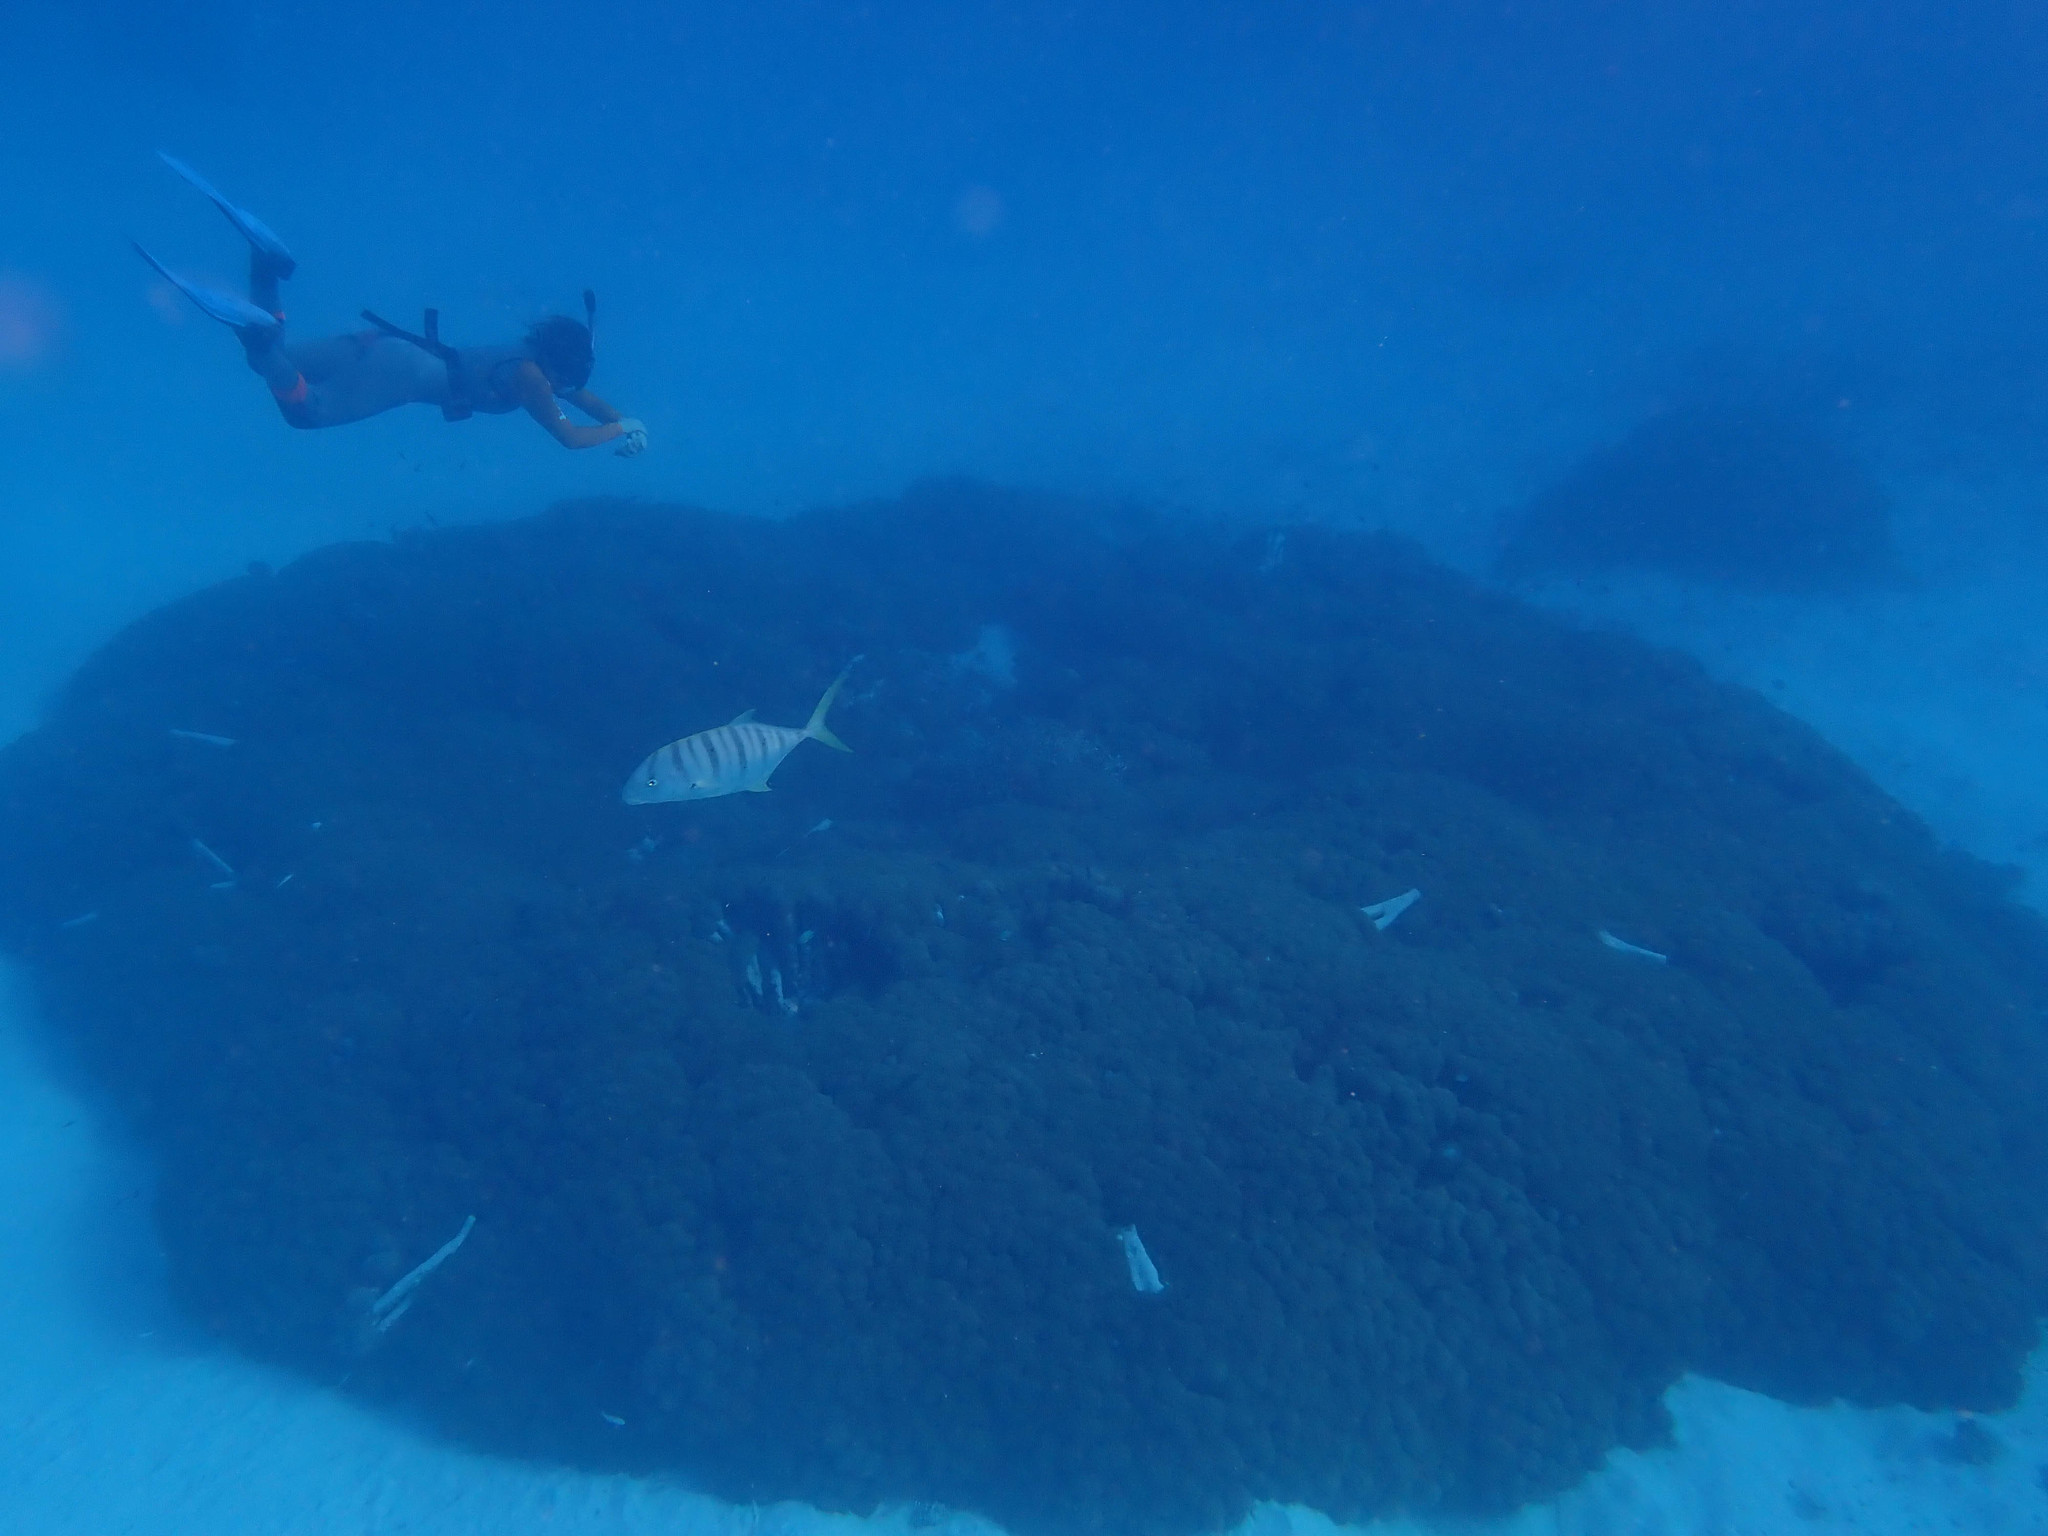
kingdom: Animalia
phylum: Chordata
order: Perciformes
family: Carangidae
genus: Gnathanodon
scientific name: Gnathanodon speciosus
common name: Golden toothless trevally
